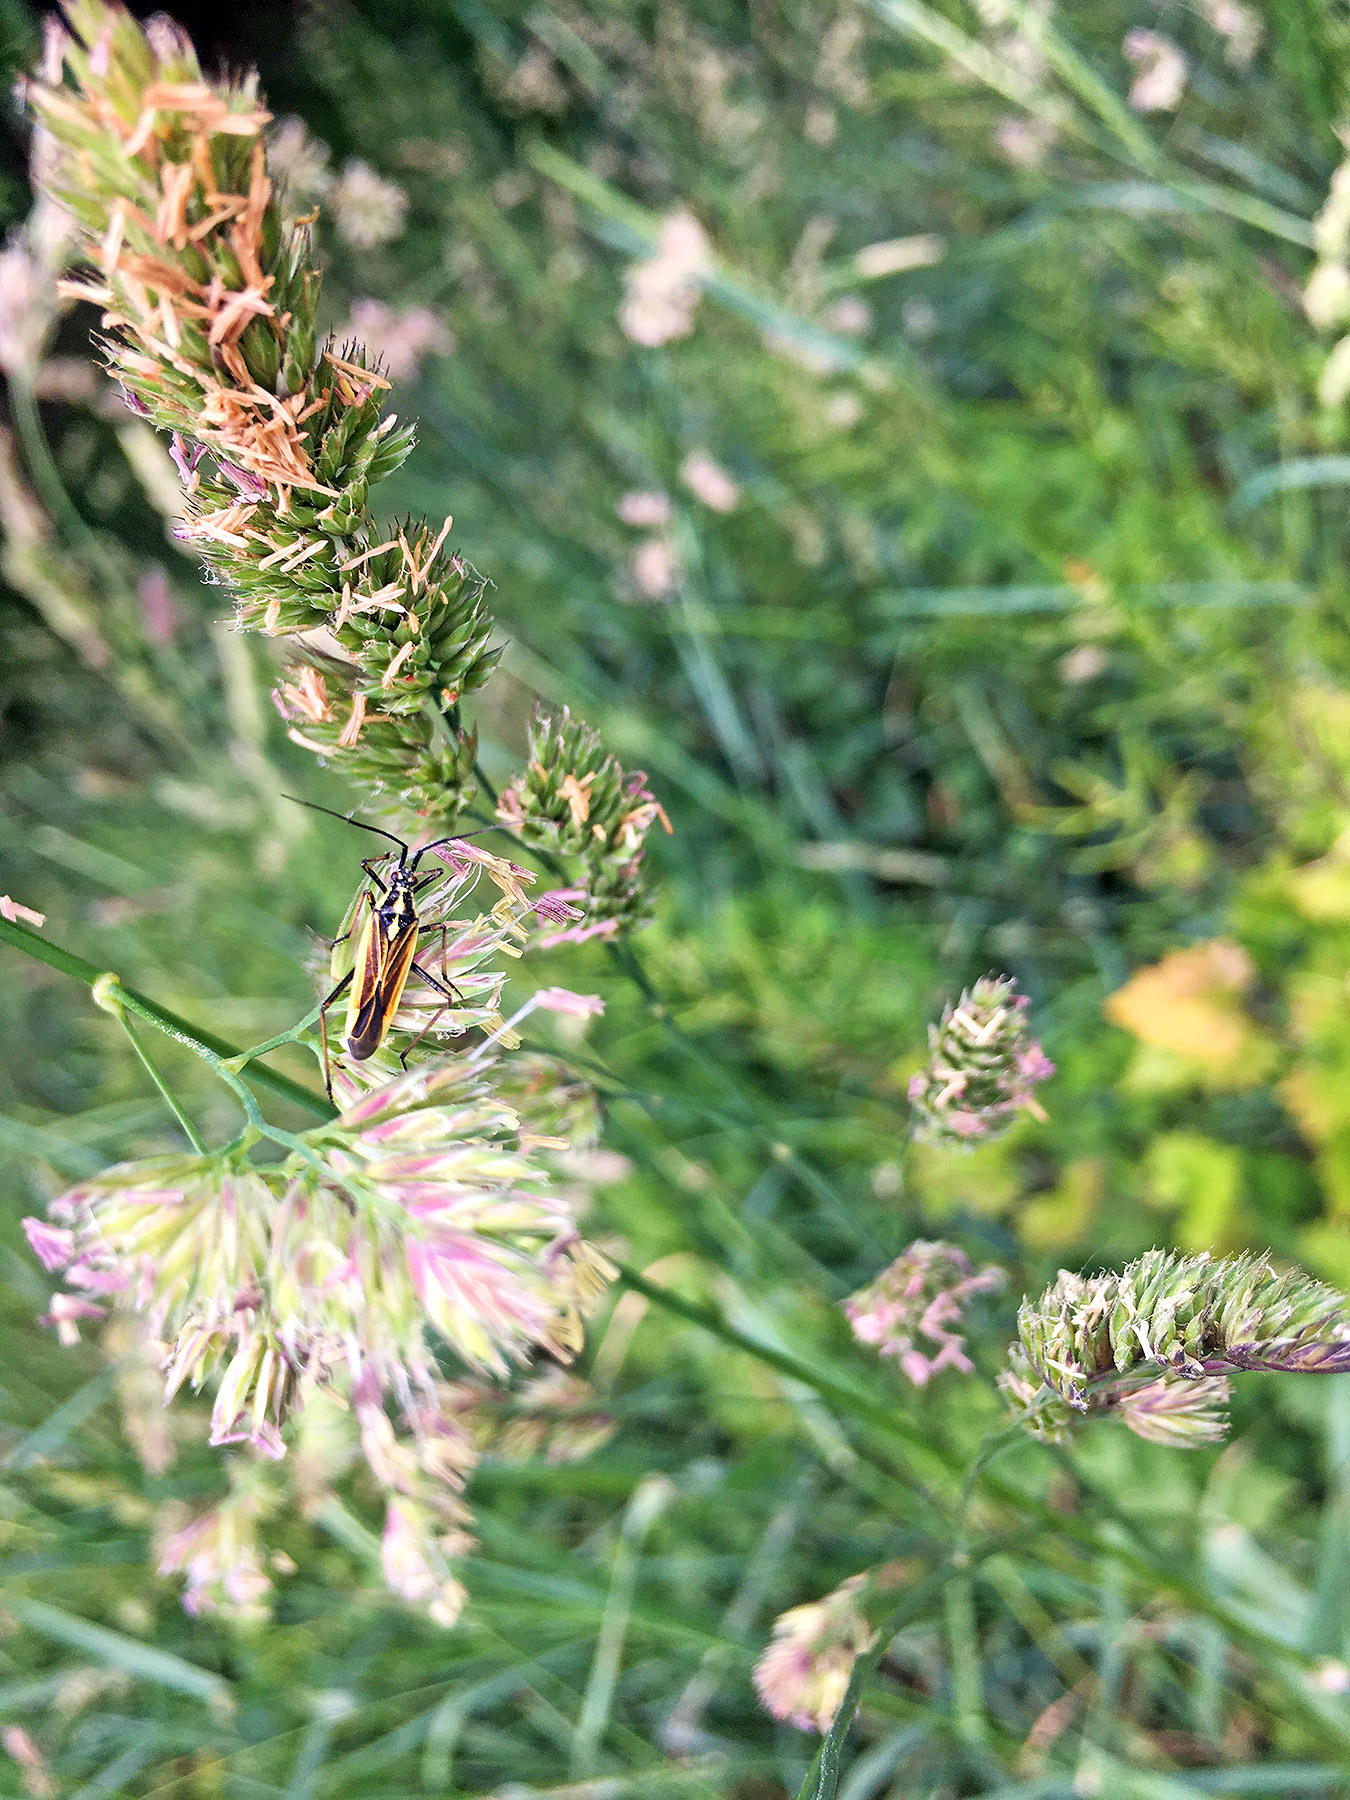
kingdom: Animalia
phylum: Arthropoda
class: Insecta
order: Hemiptera
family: Miridae
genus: Leptopterna
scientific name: Leptopterna dolabrata
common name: Meadow plant bug
